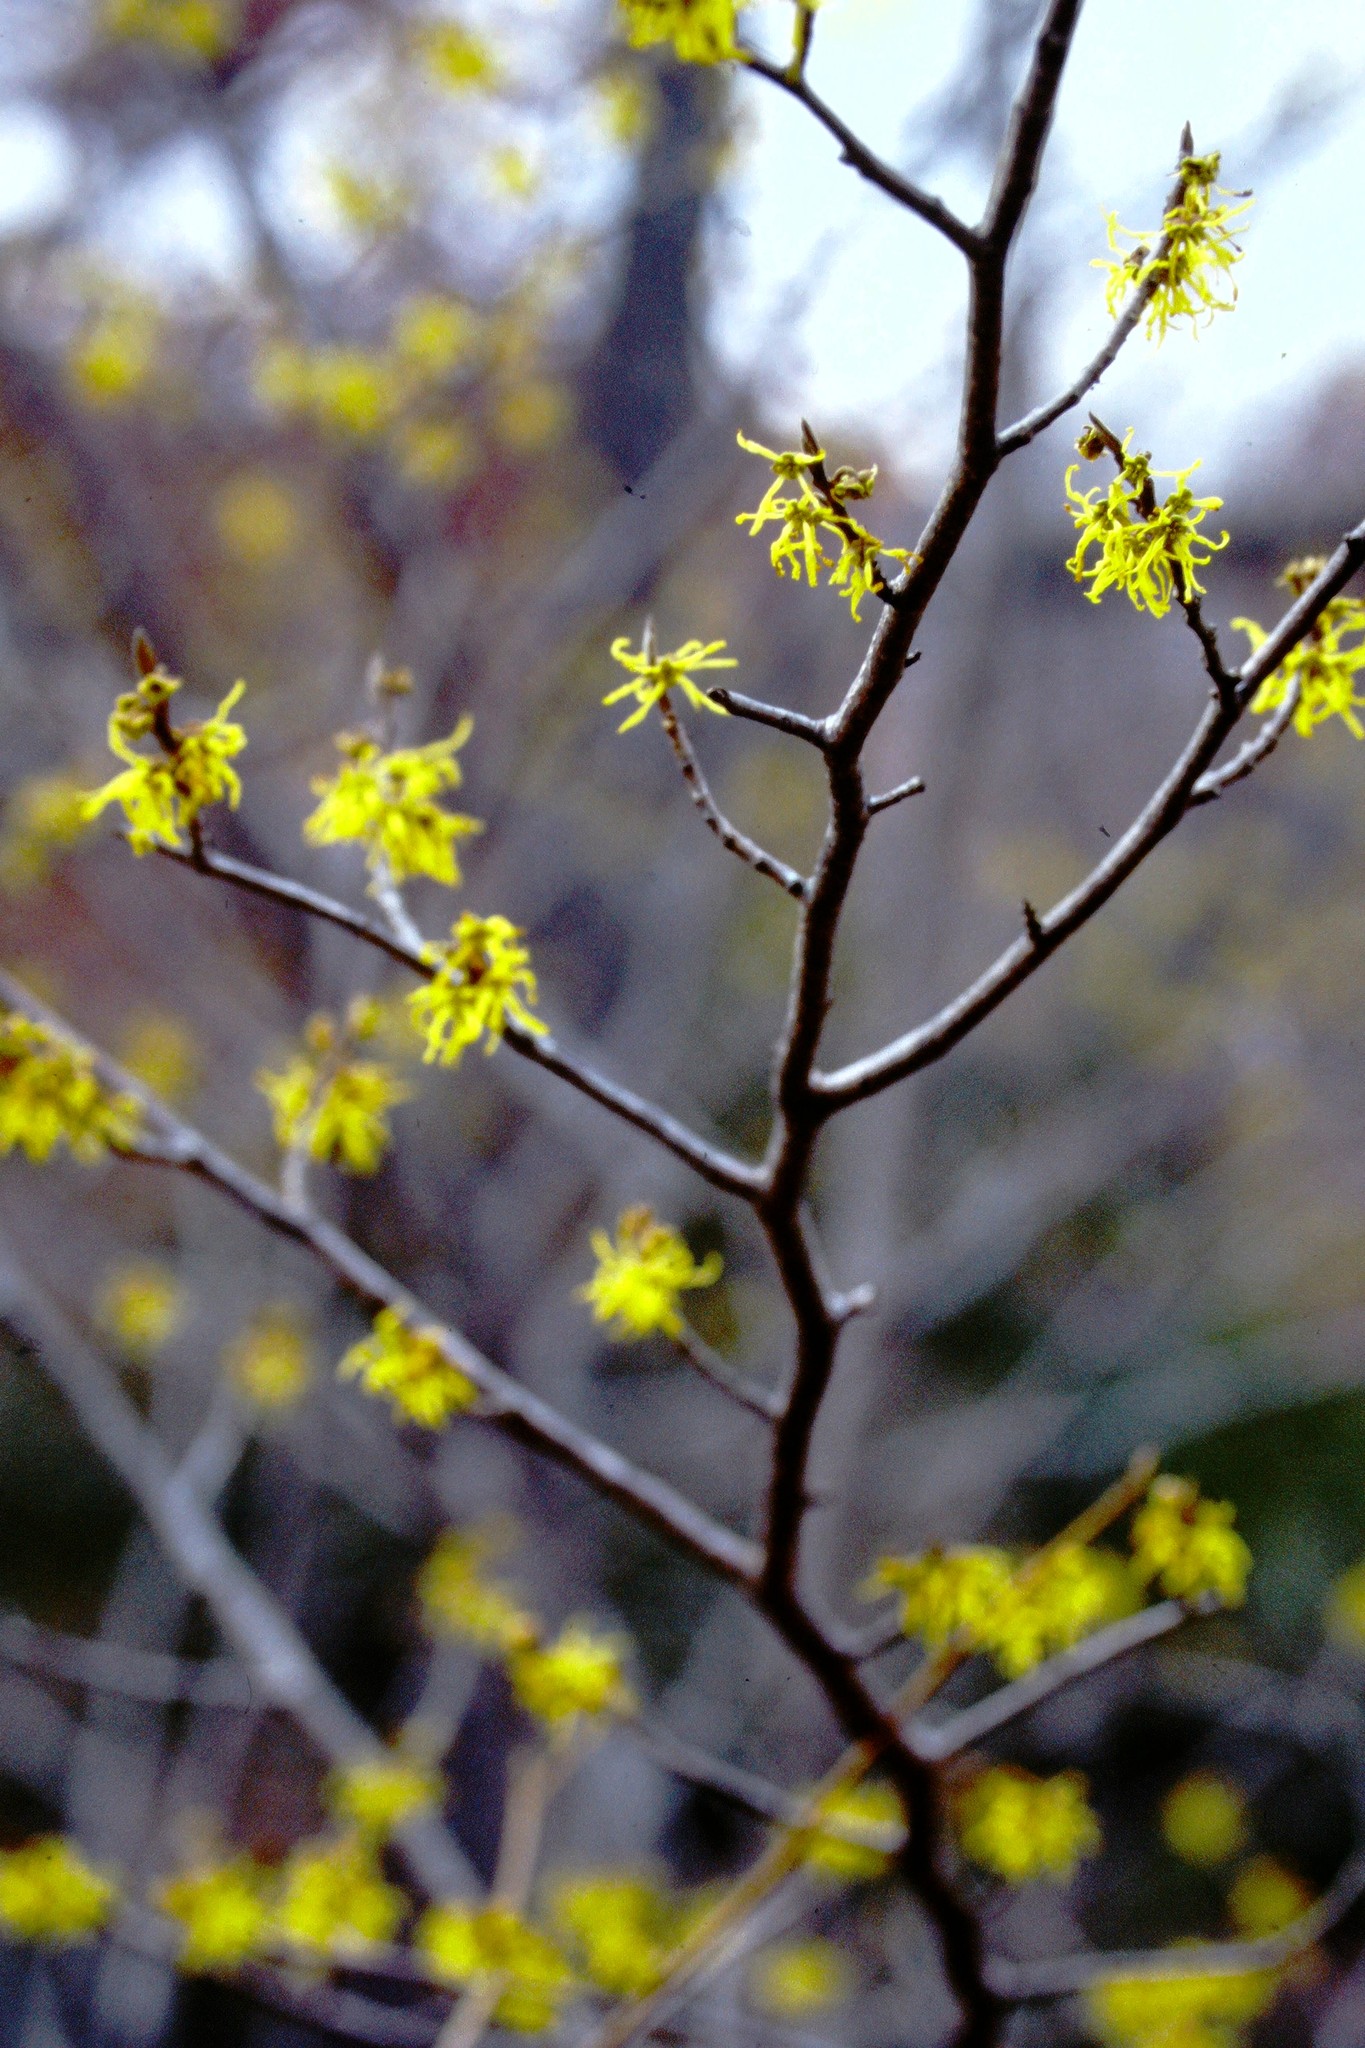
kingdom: Plantae
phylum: Tracheophyta
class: Magnoliopsida
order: Saxifragales
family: Hamamelidaceae
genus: Hamamelis
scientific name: Hamamelis virginiana
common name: Witch-hazel
